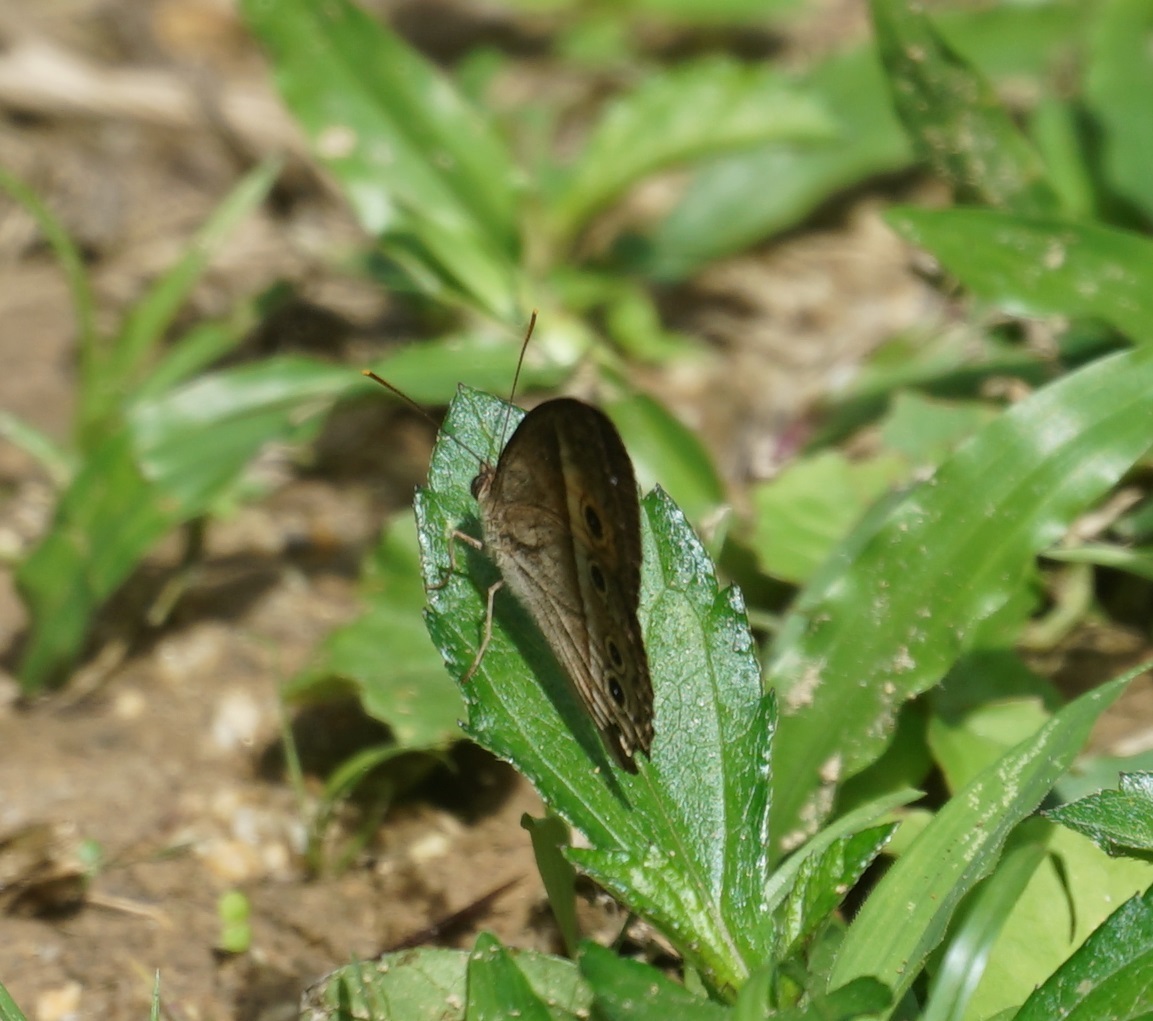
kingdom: Animalia
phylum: Arthropoda
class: Insecta
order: Lepidoptera
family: Nymphalidae
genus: Mycalesis
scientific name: Mycalesis terminus
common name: Orange bushbrown
